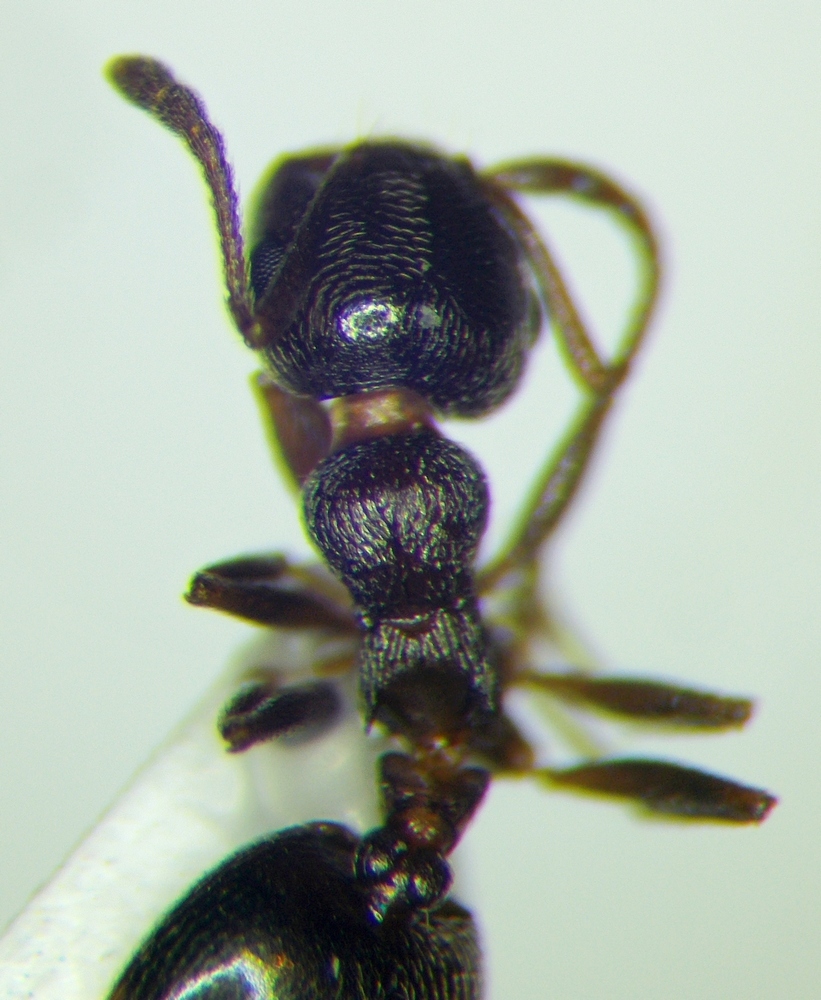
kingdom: Animalia
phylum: Arthropoda
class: Insecta
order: Hymenoptera
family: Formicidae
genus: Crematogaster
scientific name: Crematogaster jehovae
